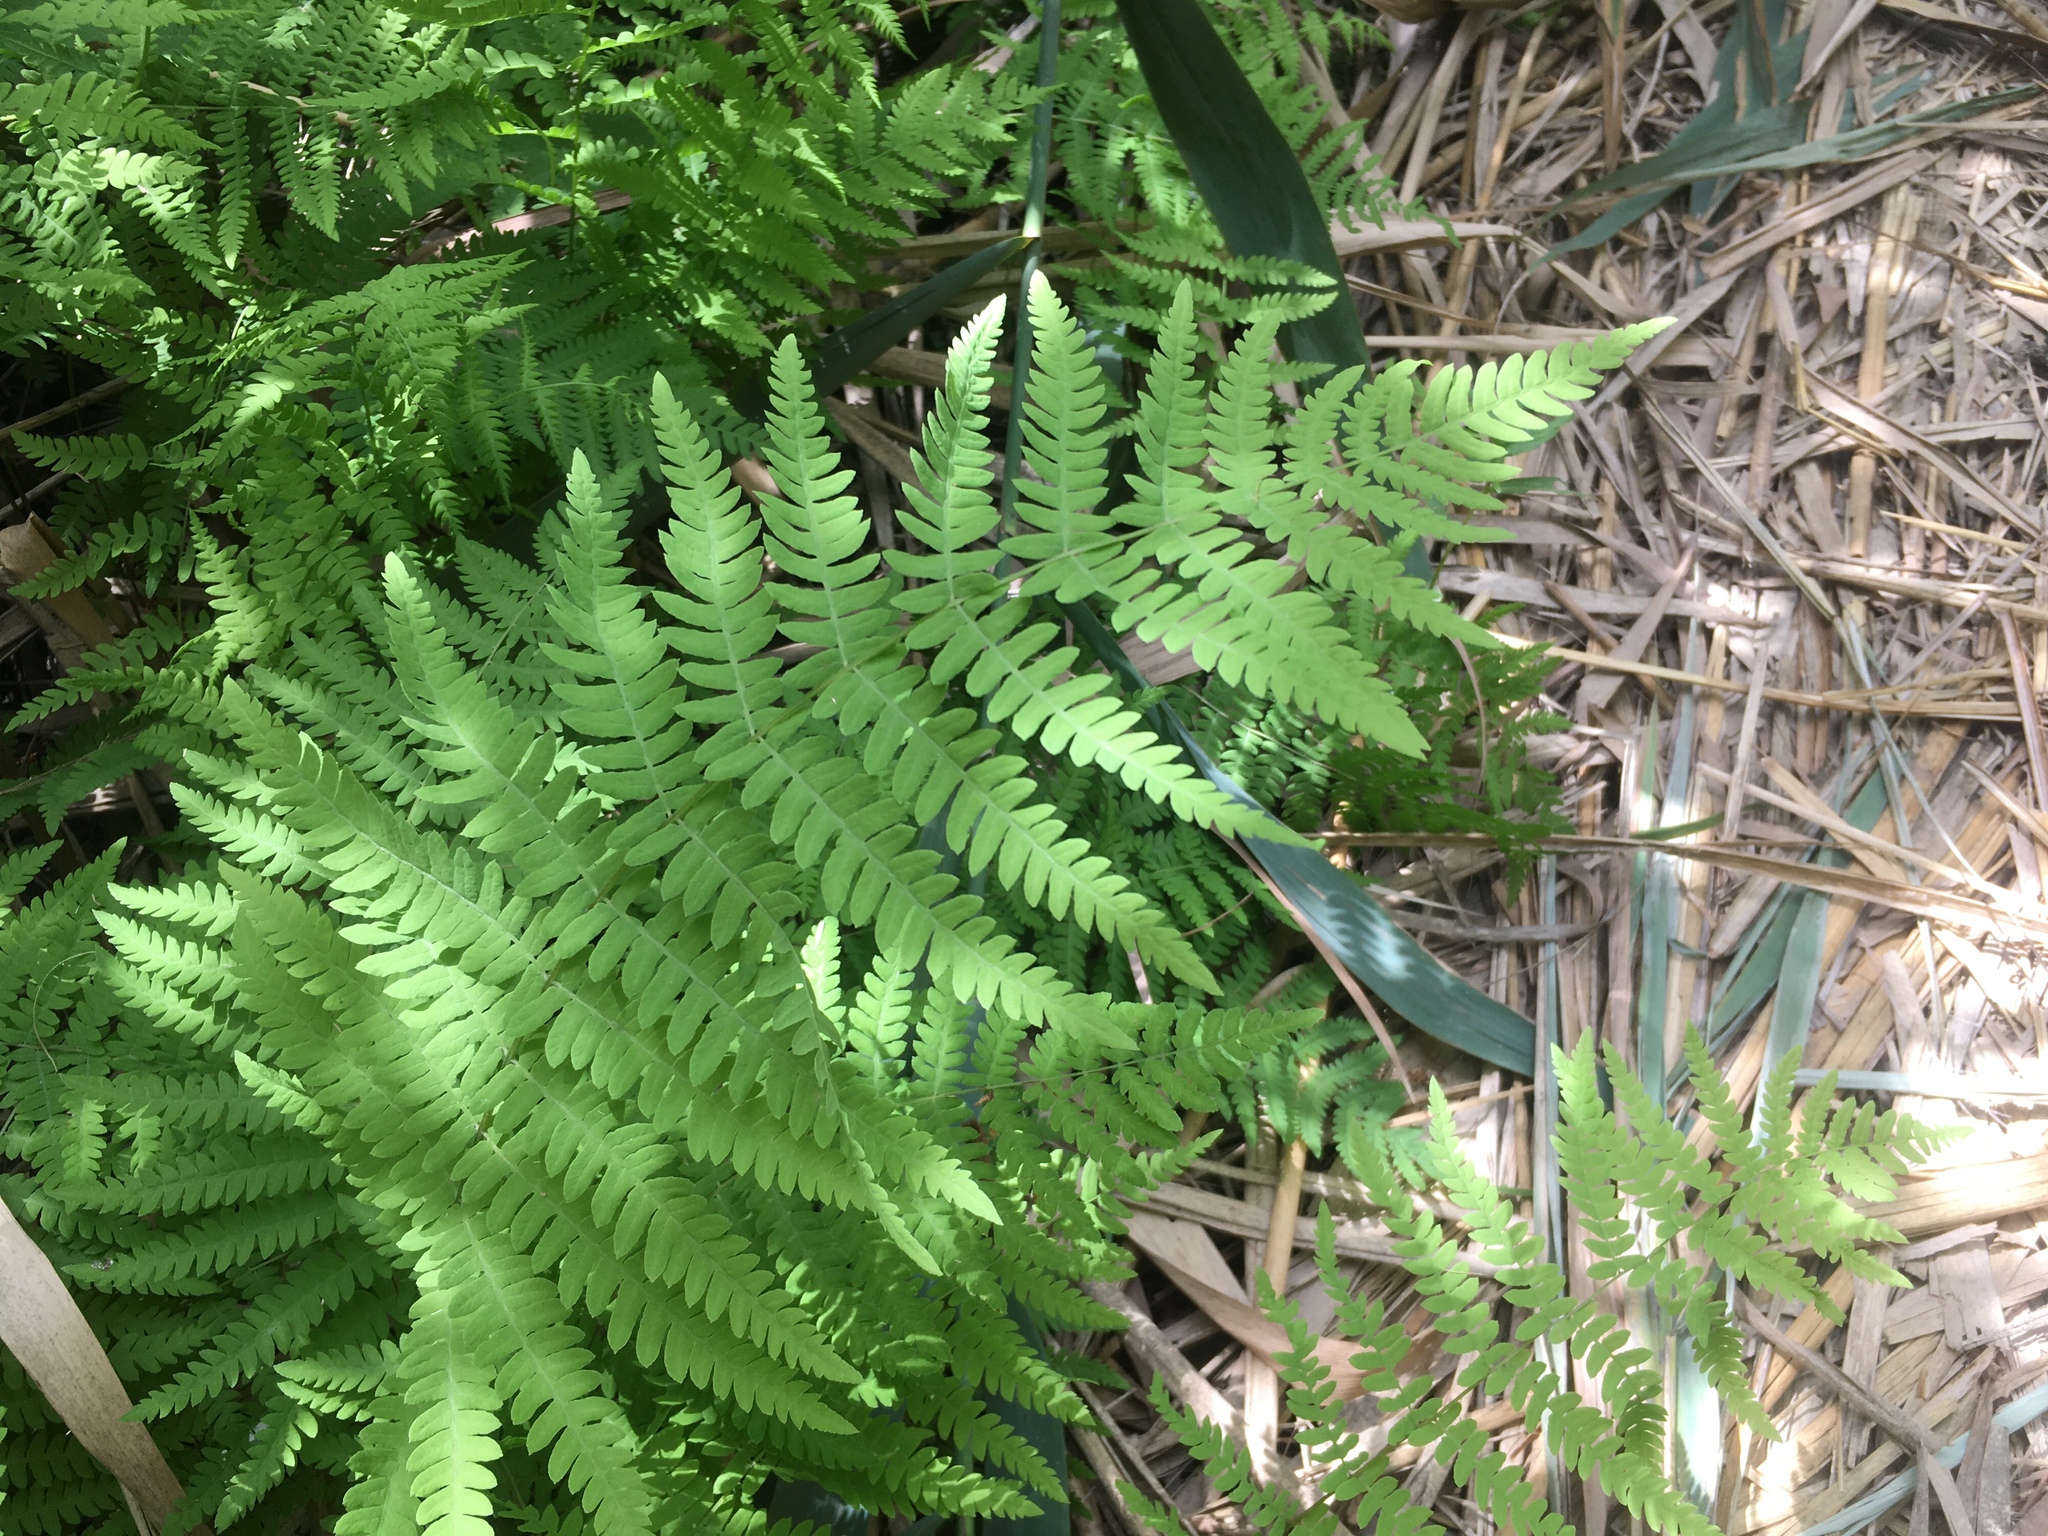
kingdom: Plantae
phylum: Tracheophyta
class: Polypodiopsida
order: Polypodiales
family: Thelypteridaceae
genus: Thelypteris
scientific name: Thelypteris palustris
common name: Marsh fern
